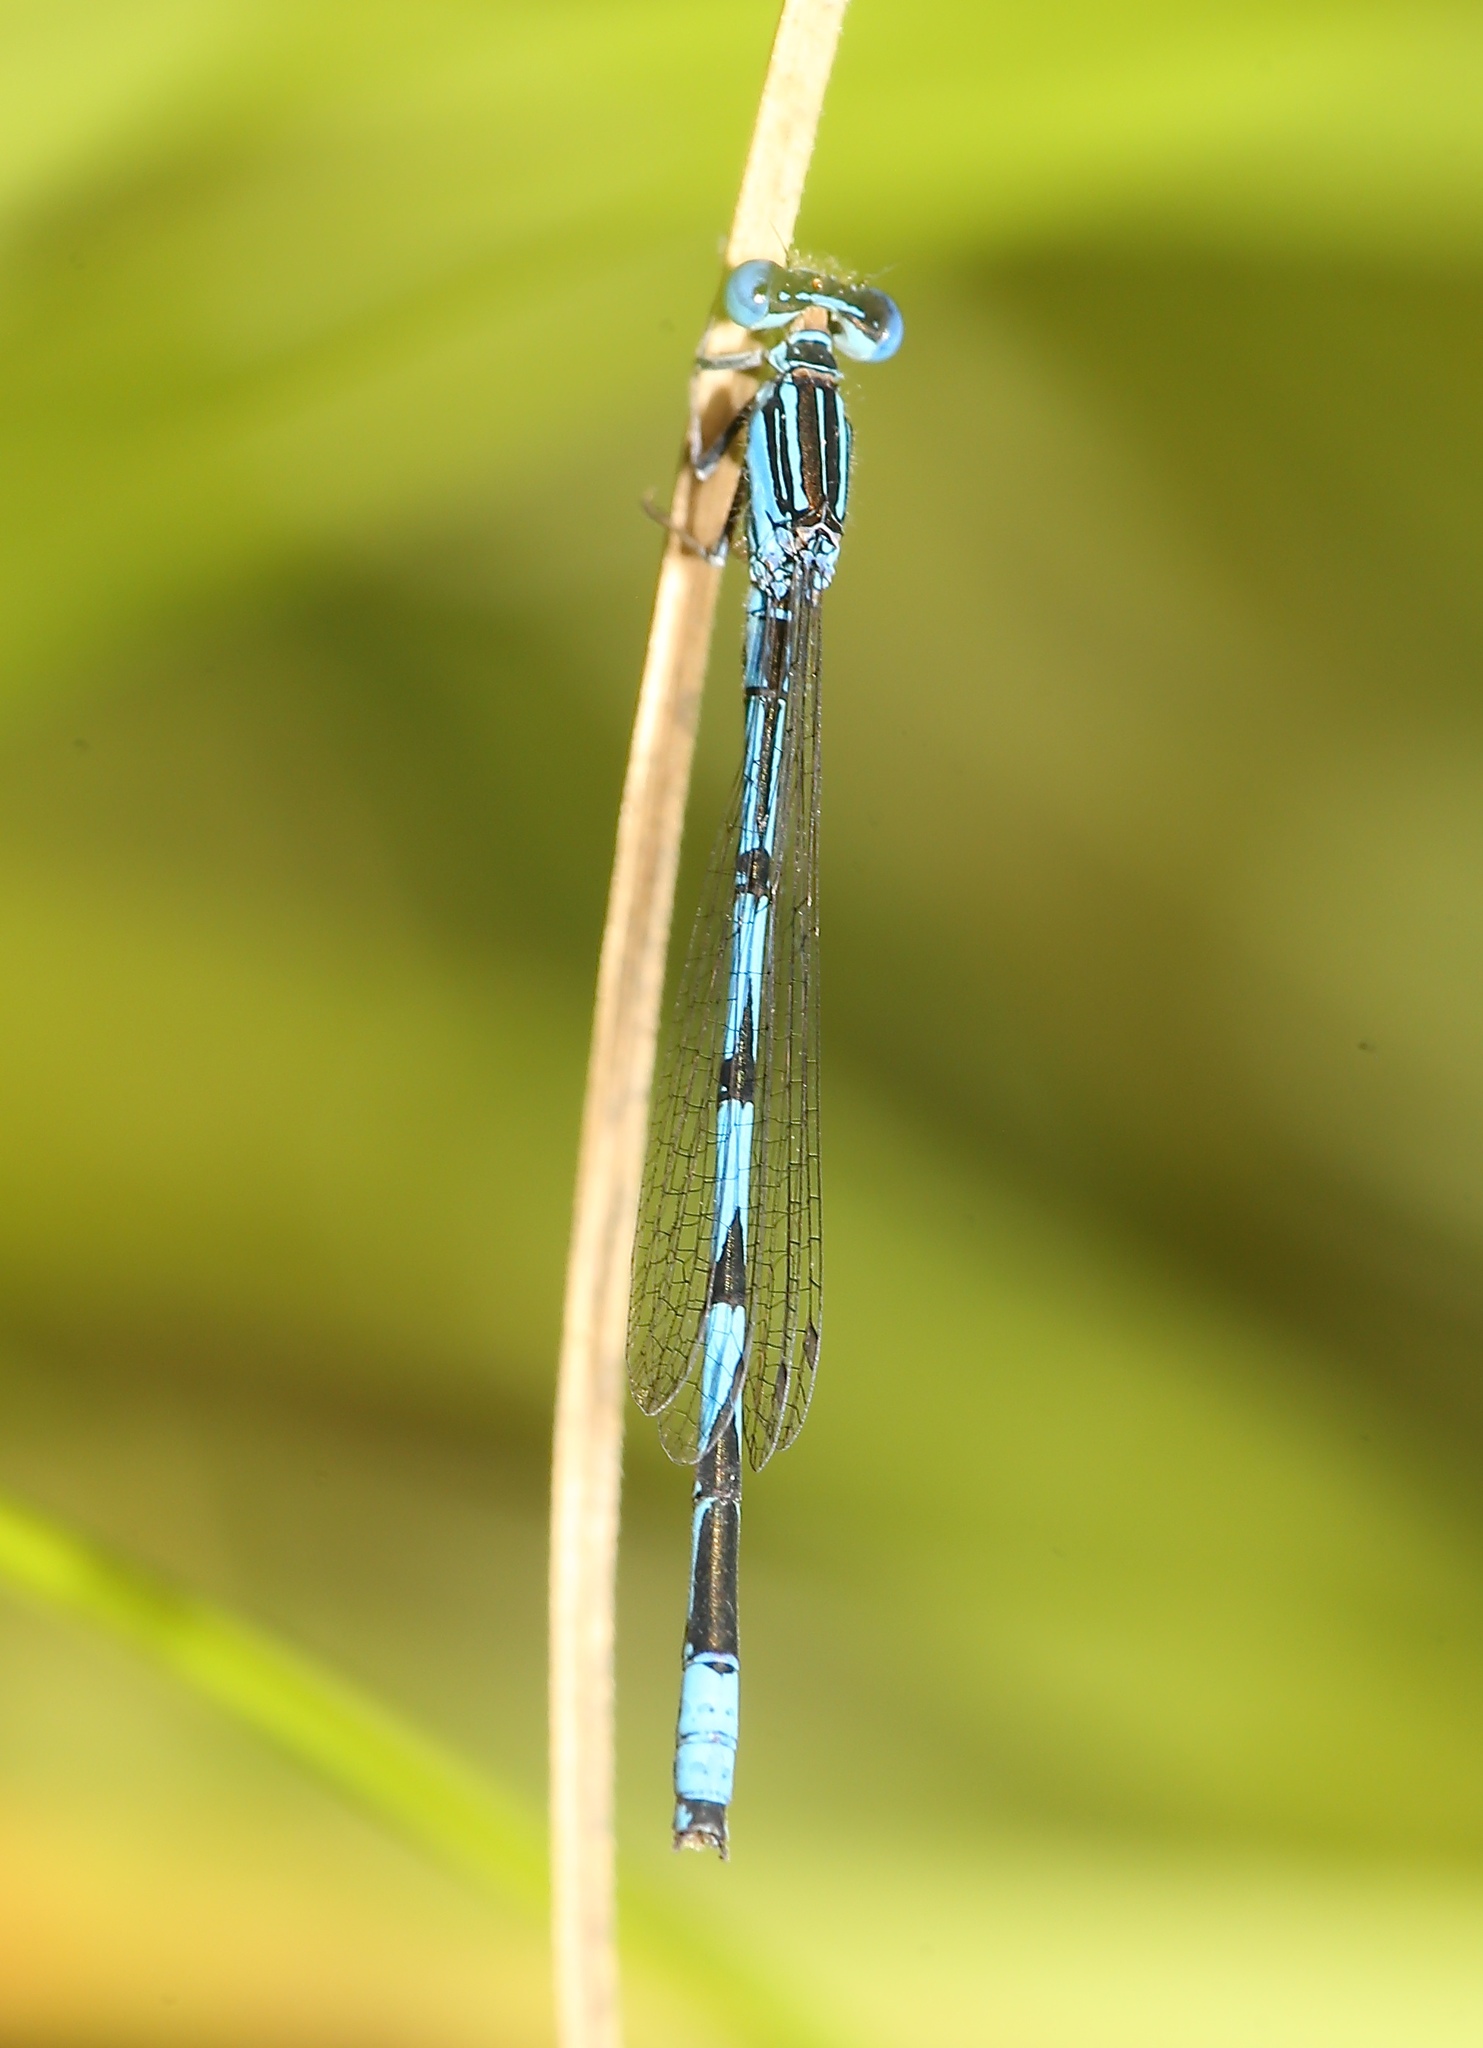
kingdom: Animalia
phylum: Arthropoda
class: Insecta
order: Odonata
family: Coenagrionidae
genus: Enallagma
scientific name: Enallagma basidens
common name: Double-striped bluet
